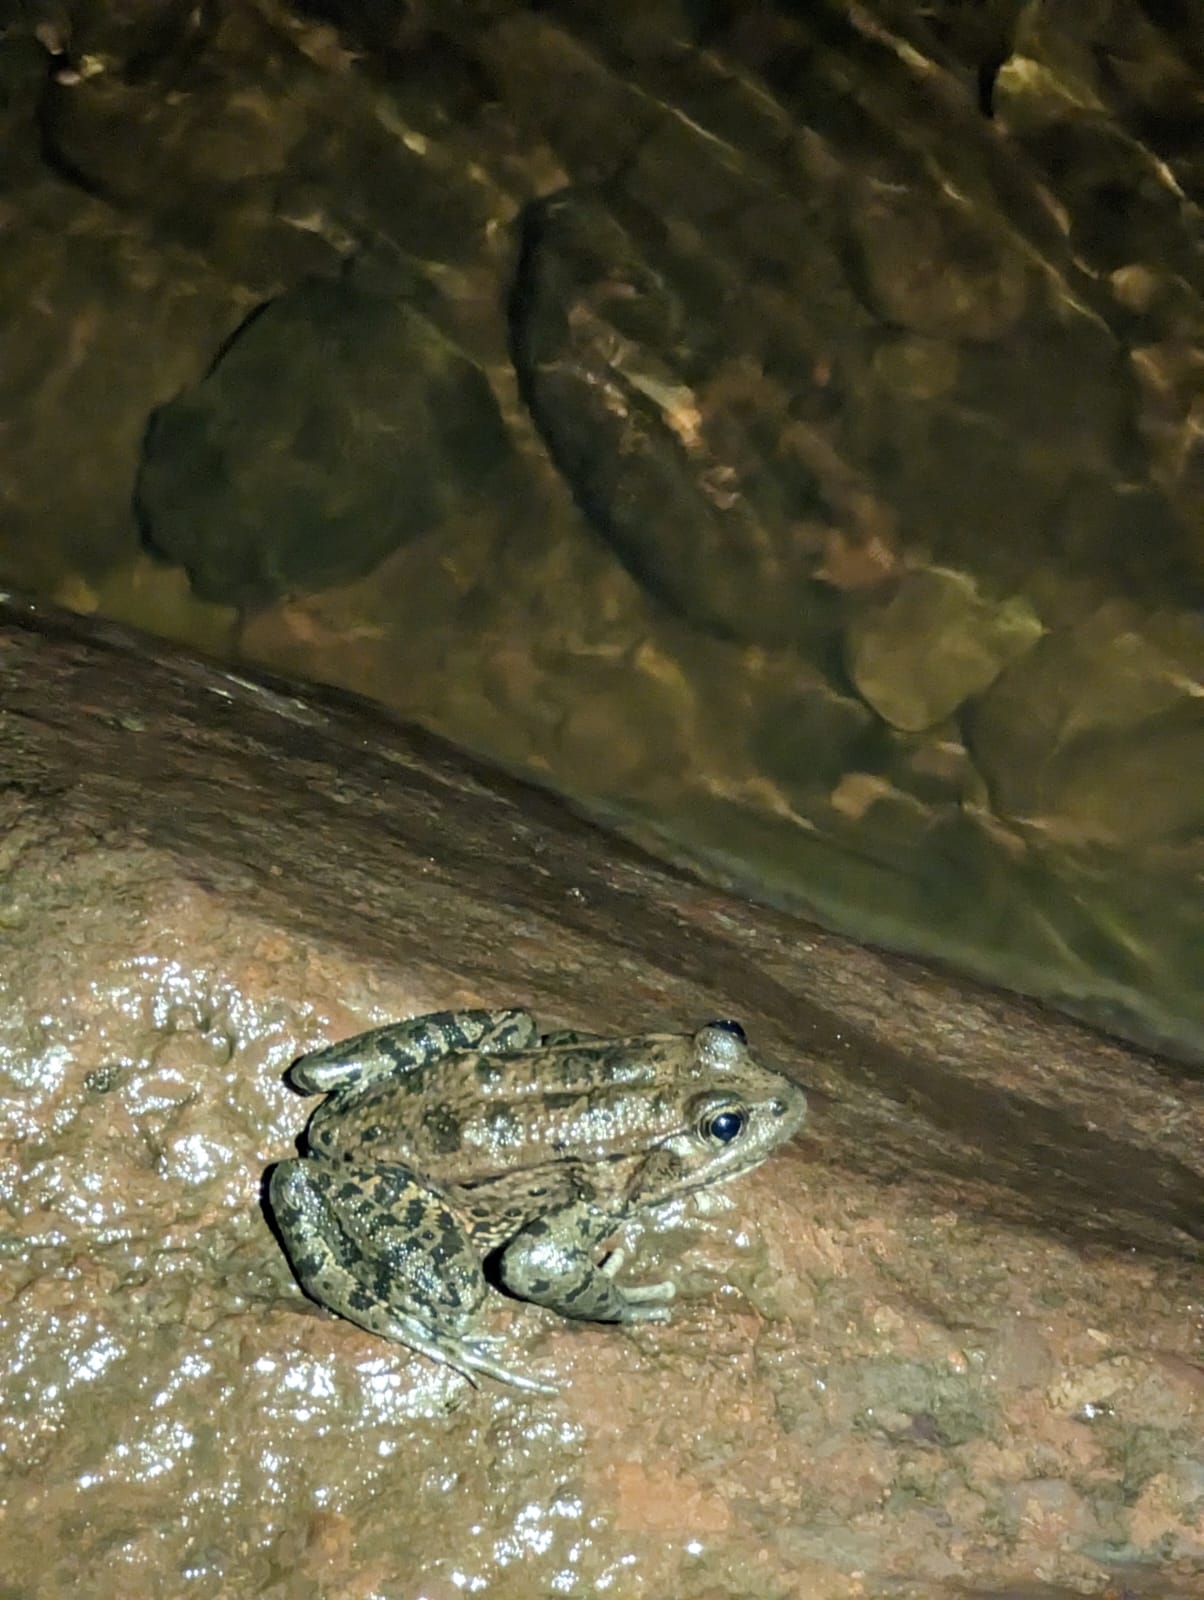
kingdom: Animalia
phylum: Chordata
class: Amphibia
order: Anura
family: Ranidae
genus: Rana
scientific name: Rana draytonii
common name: California red-legged frog
